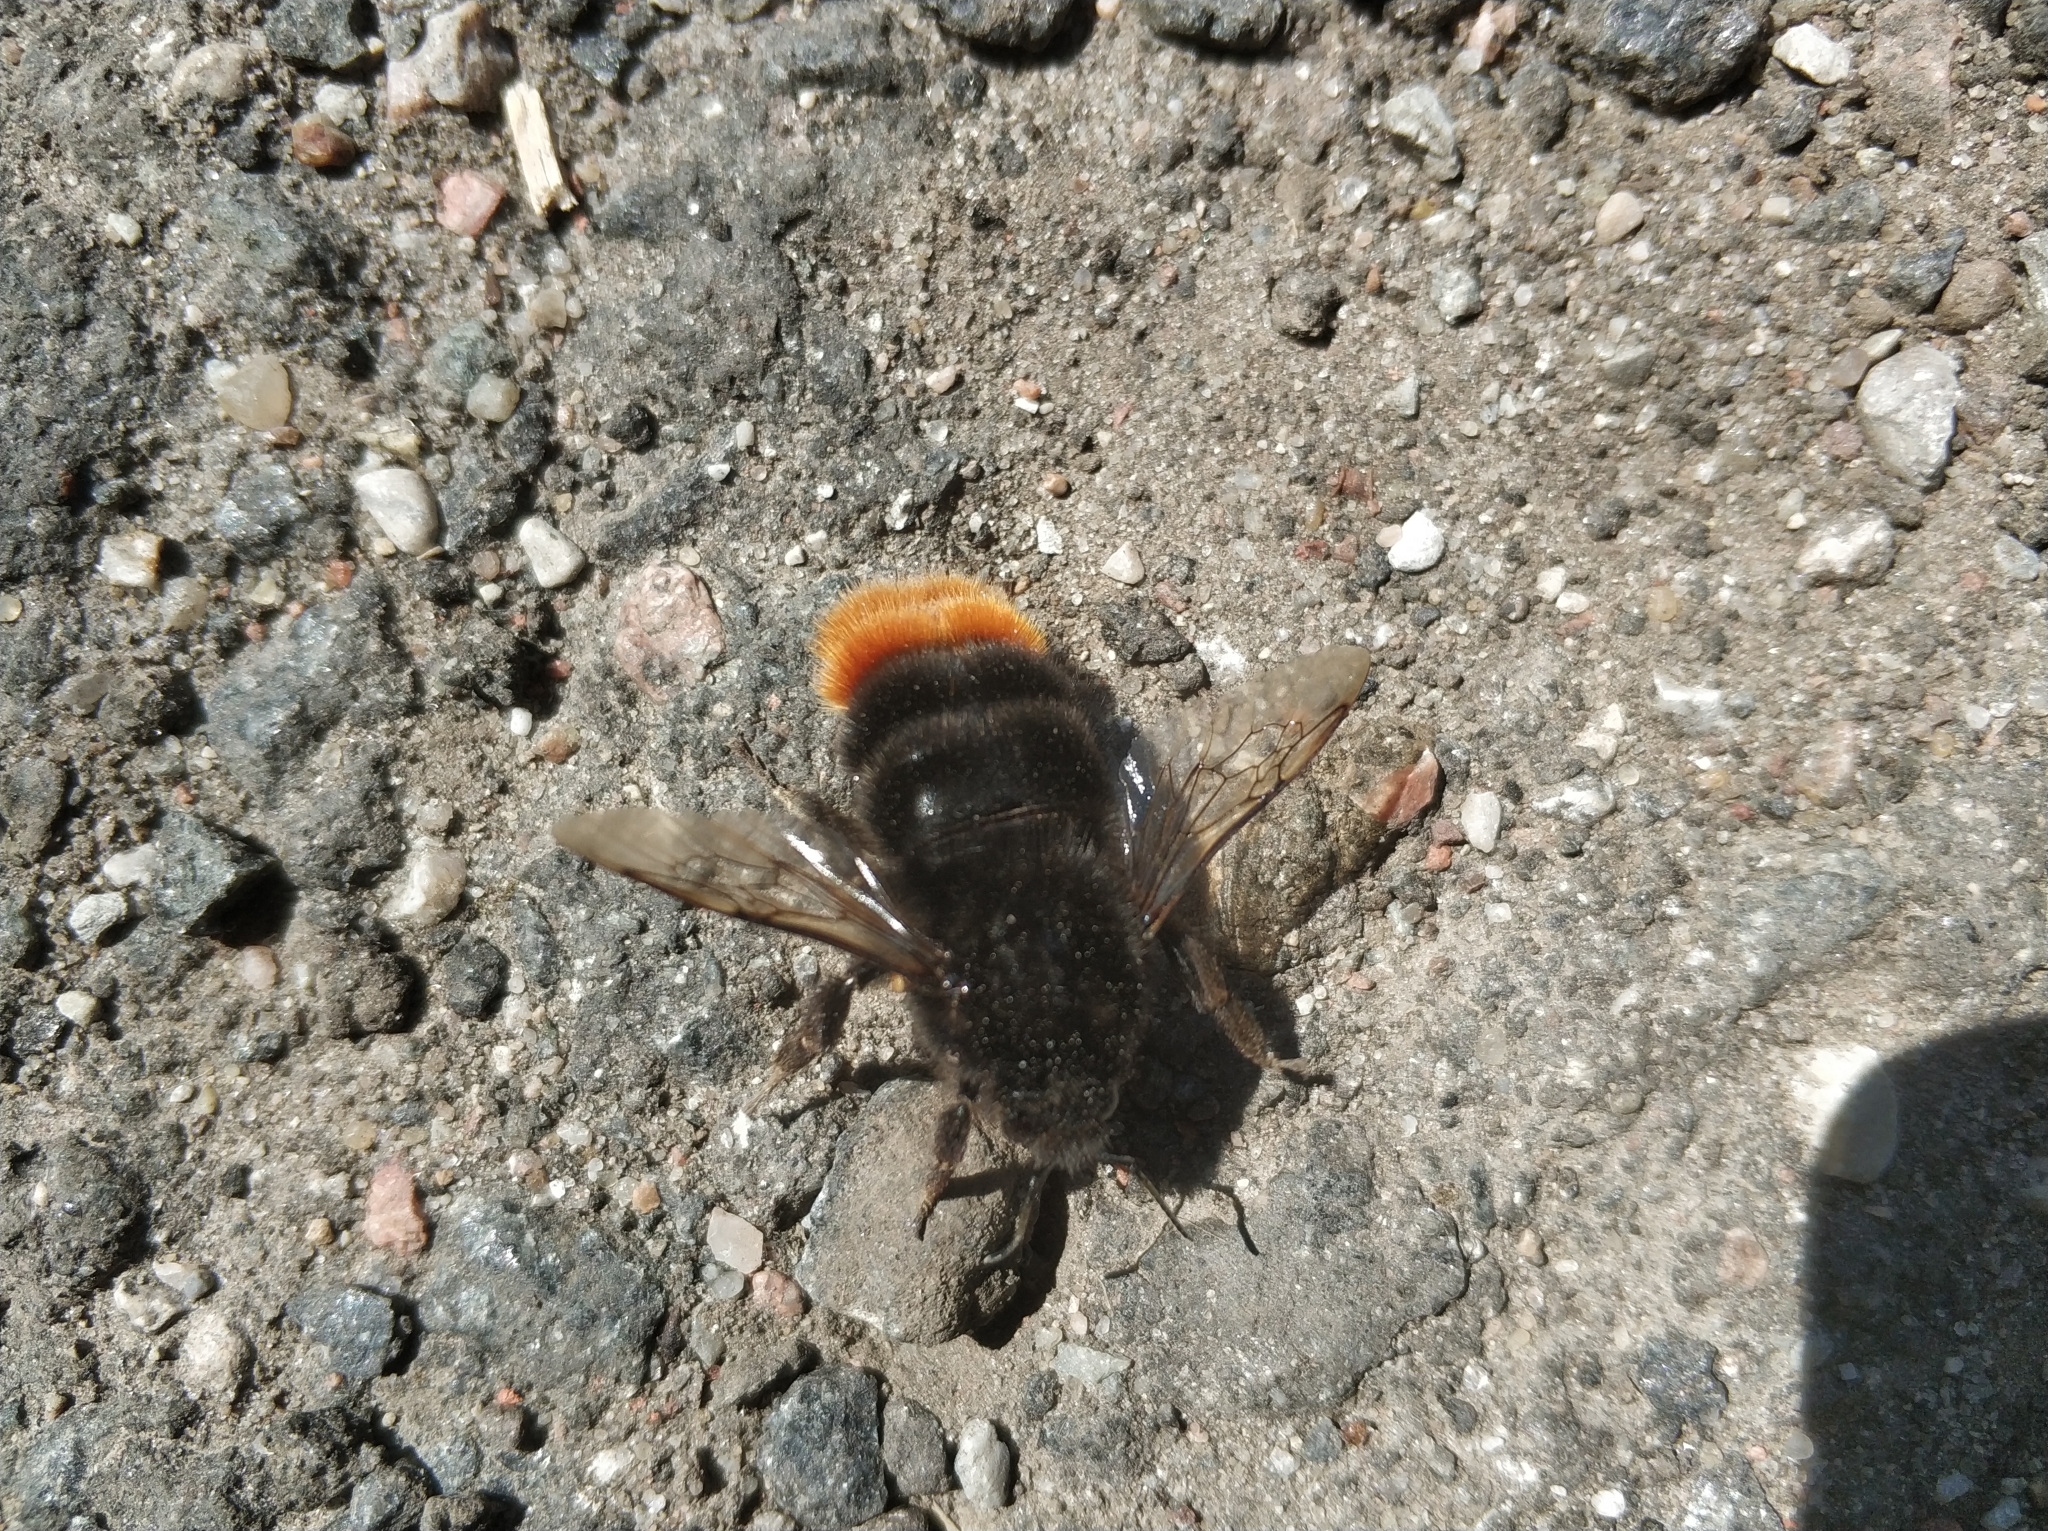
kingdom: Animalia
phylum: Arthropoda
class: Insecta
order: Hymenoptera
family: Apidae
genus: Bombus
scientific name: Bombus lapidarius
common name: Large red-tailed humble-bee
